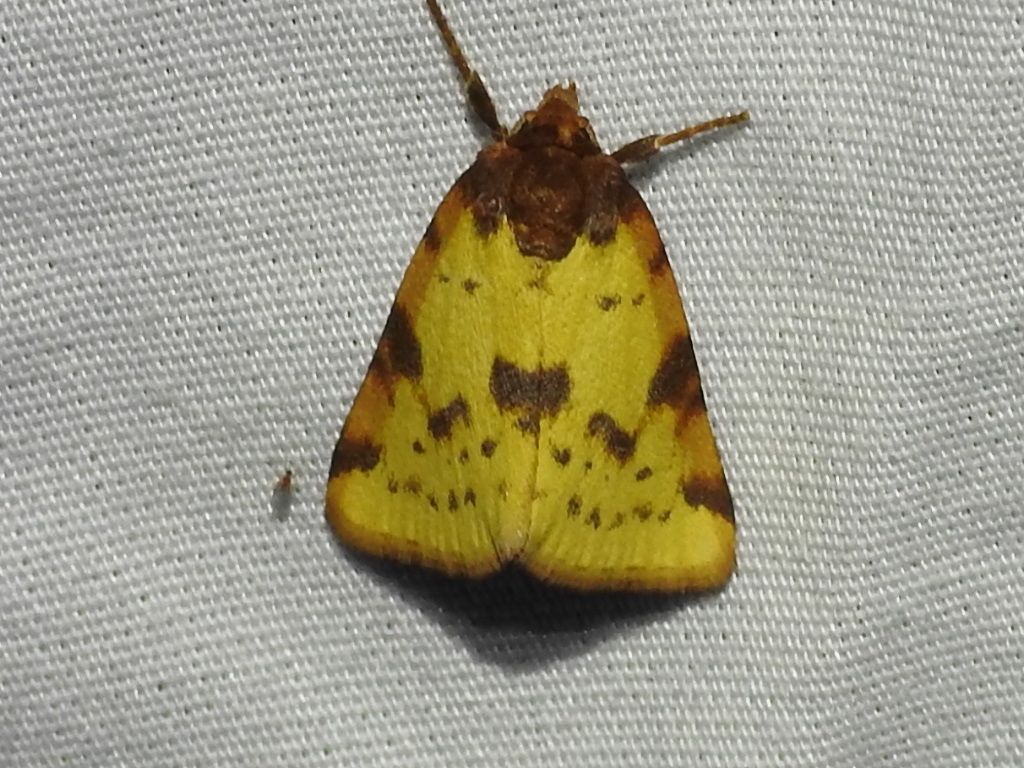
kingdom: Animalia
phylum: Arthropoda
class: Insecta
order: Lepidoptera
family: Noctuidae
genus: Azenia
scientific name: Azenia obtusa
